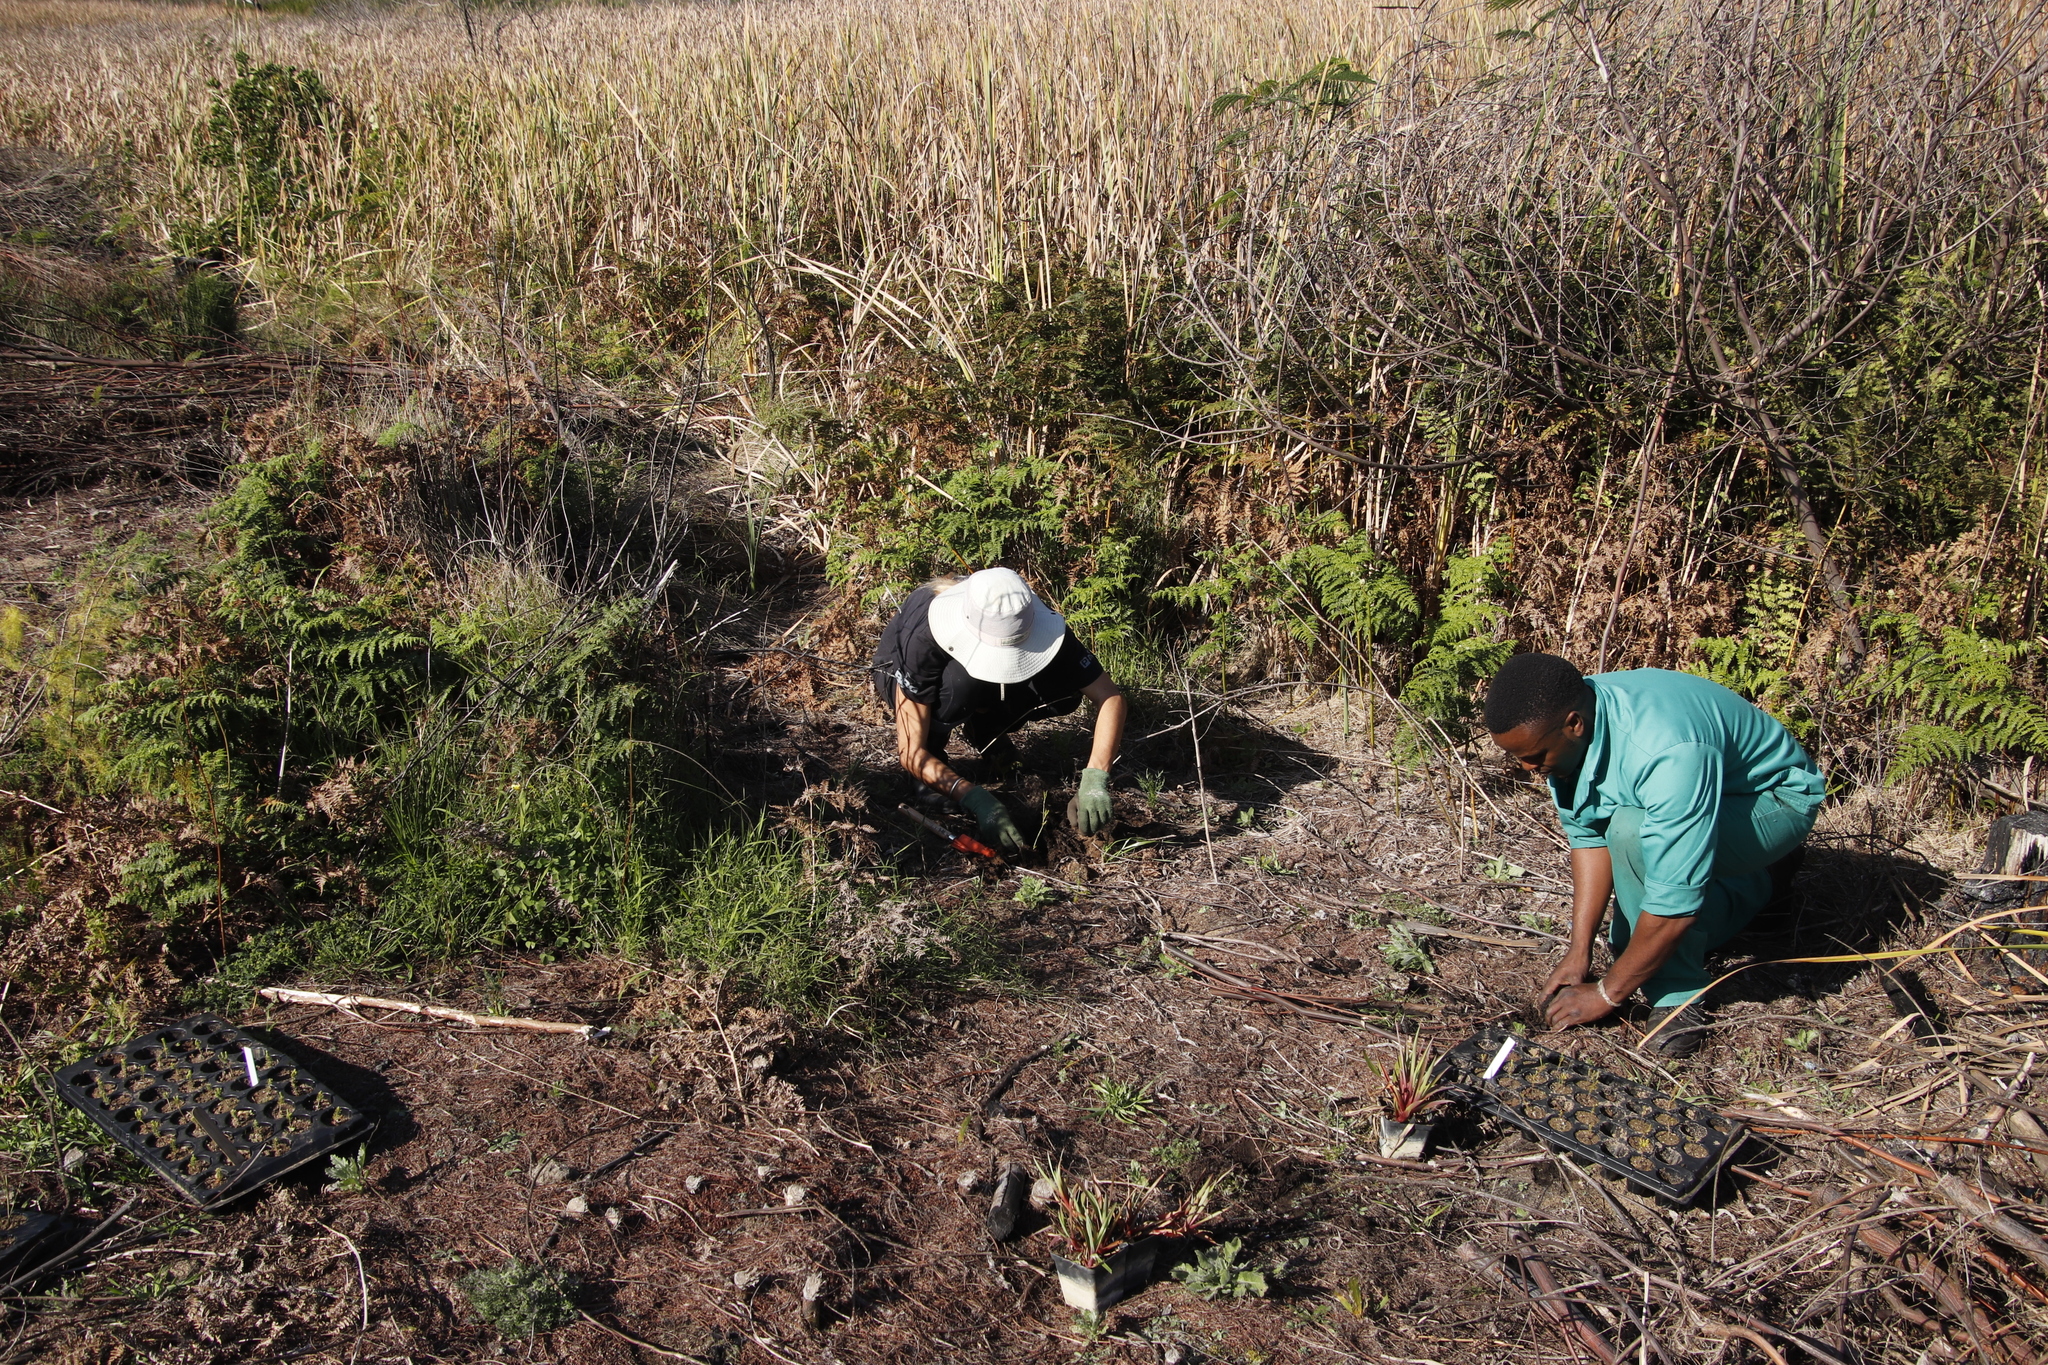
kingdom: Plantae
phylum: Tracheophyta
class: Polypodiopsida
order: Polypodiales
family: Dennstaedtiaceae
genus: Pteridium
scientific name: Pteridium aquilinum
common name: Bracken
